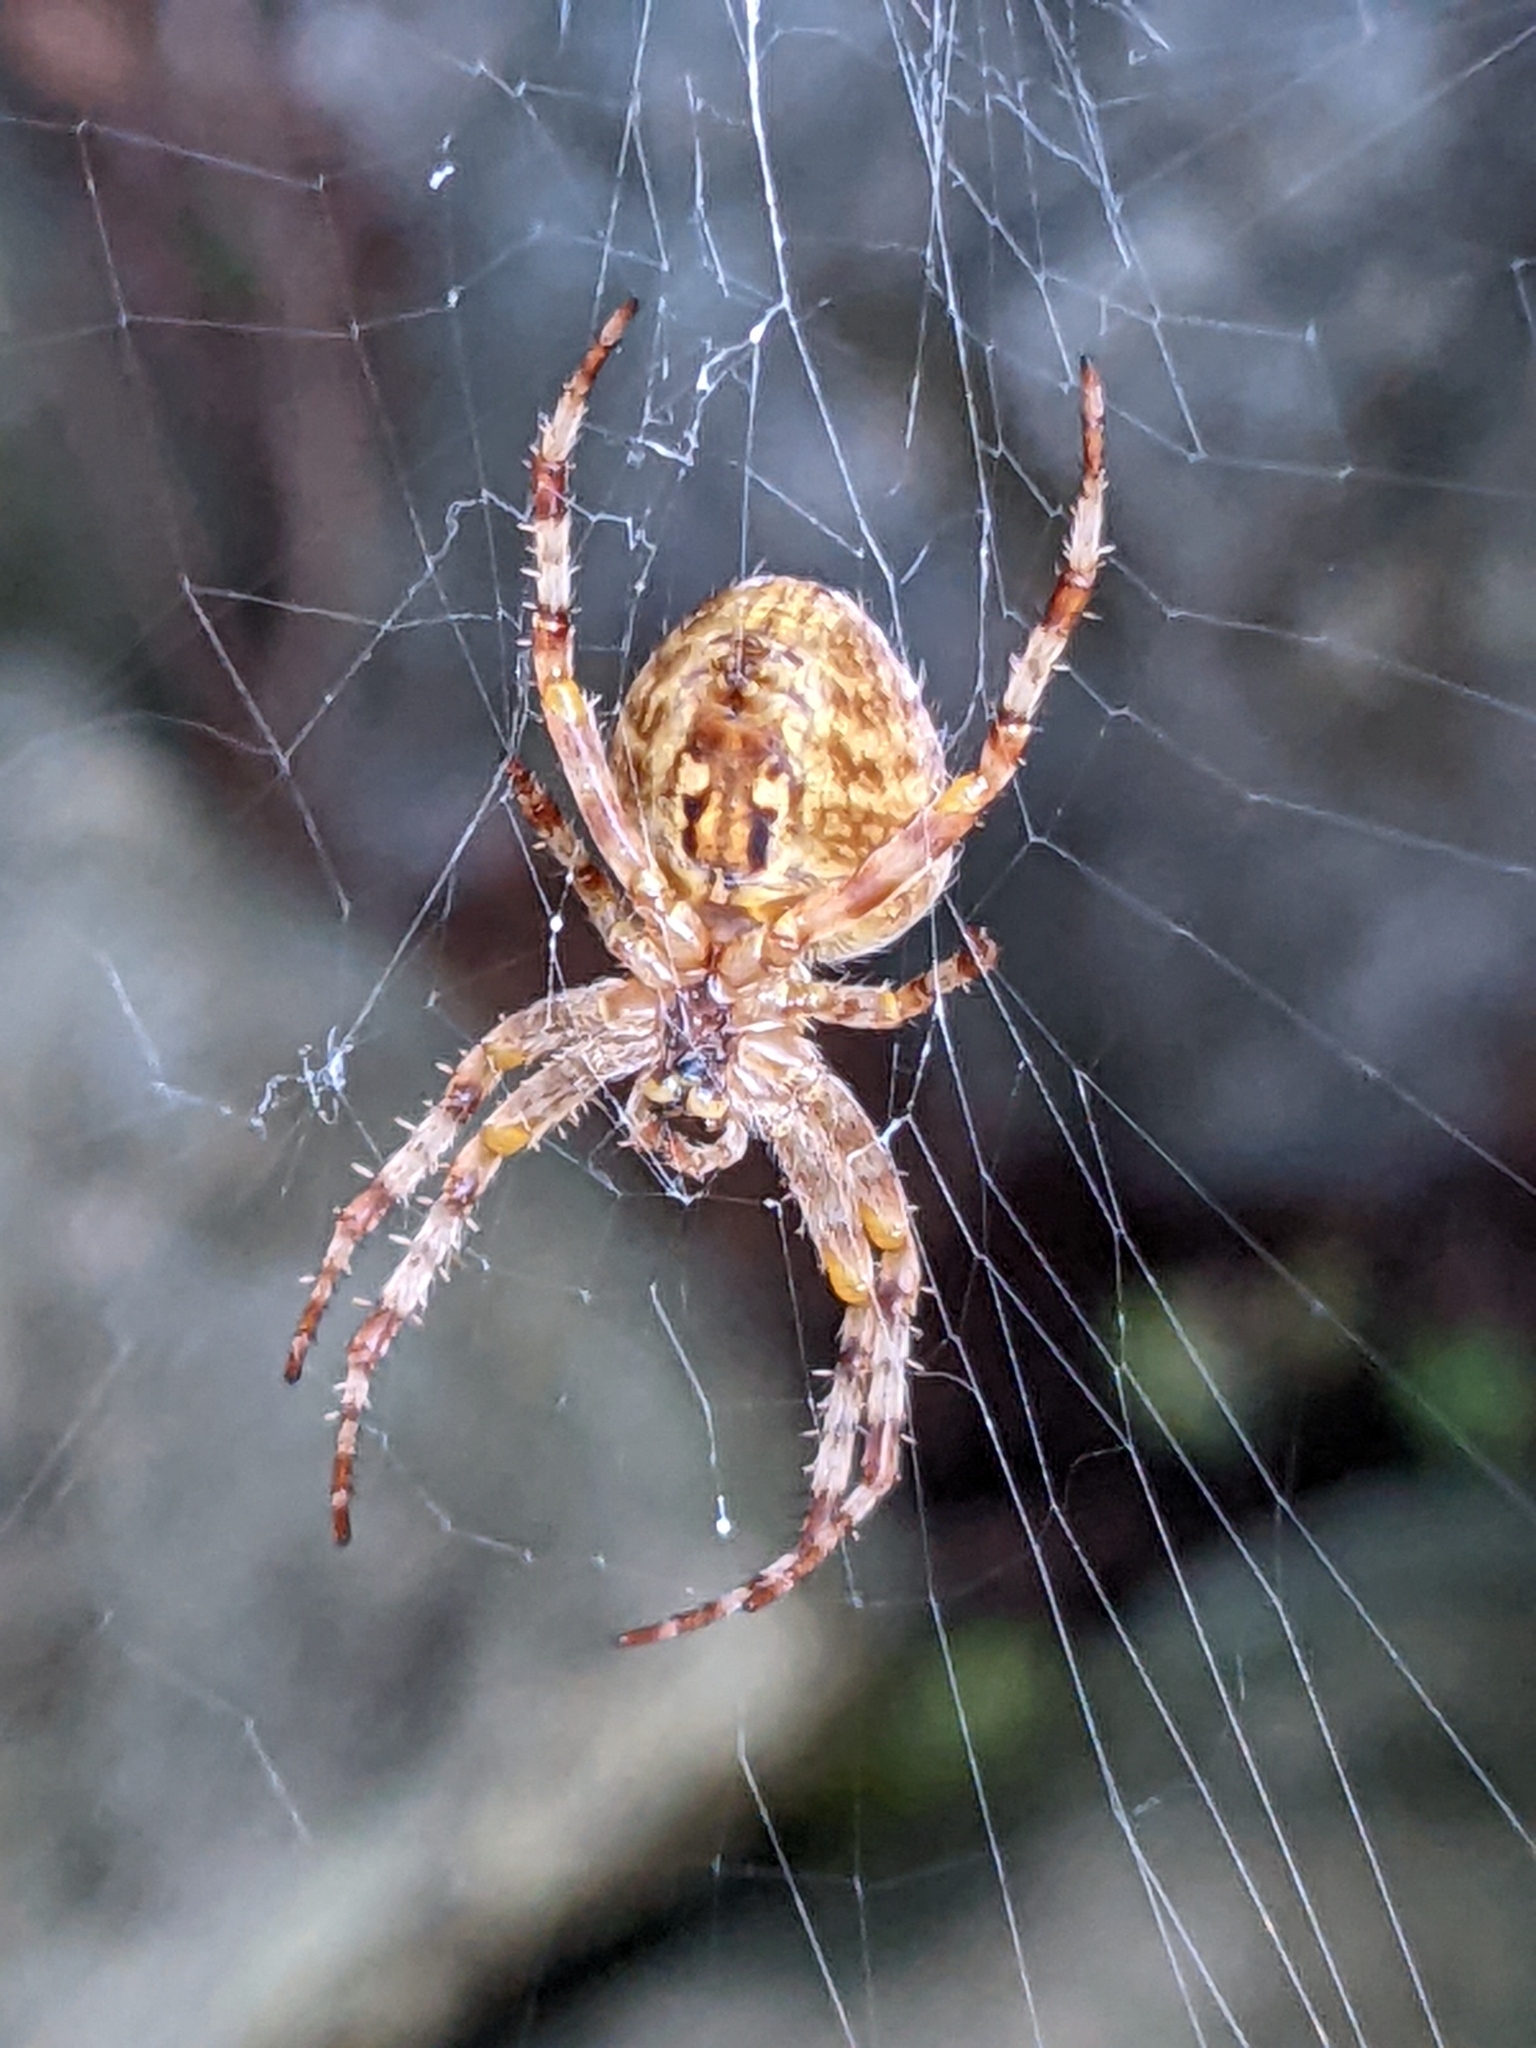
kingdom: Animalia
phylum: Arthropoda
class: Arachnida
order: Araneae
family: Araneidae
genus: Araneus
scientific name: Araneus diadematus
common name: Cross orbweaver
